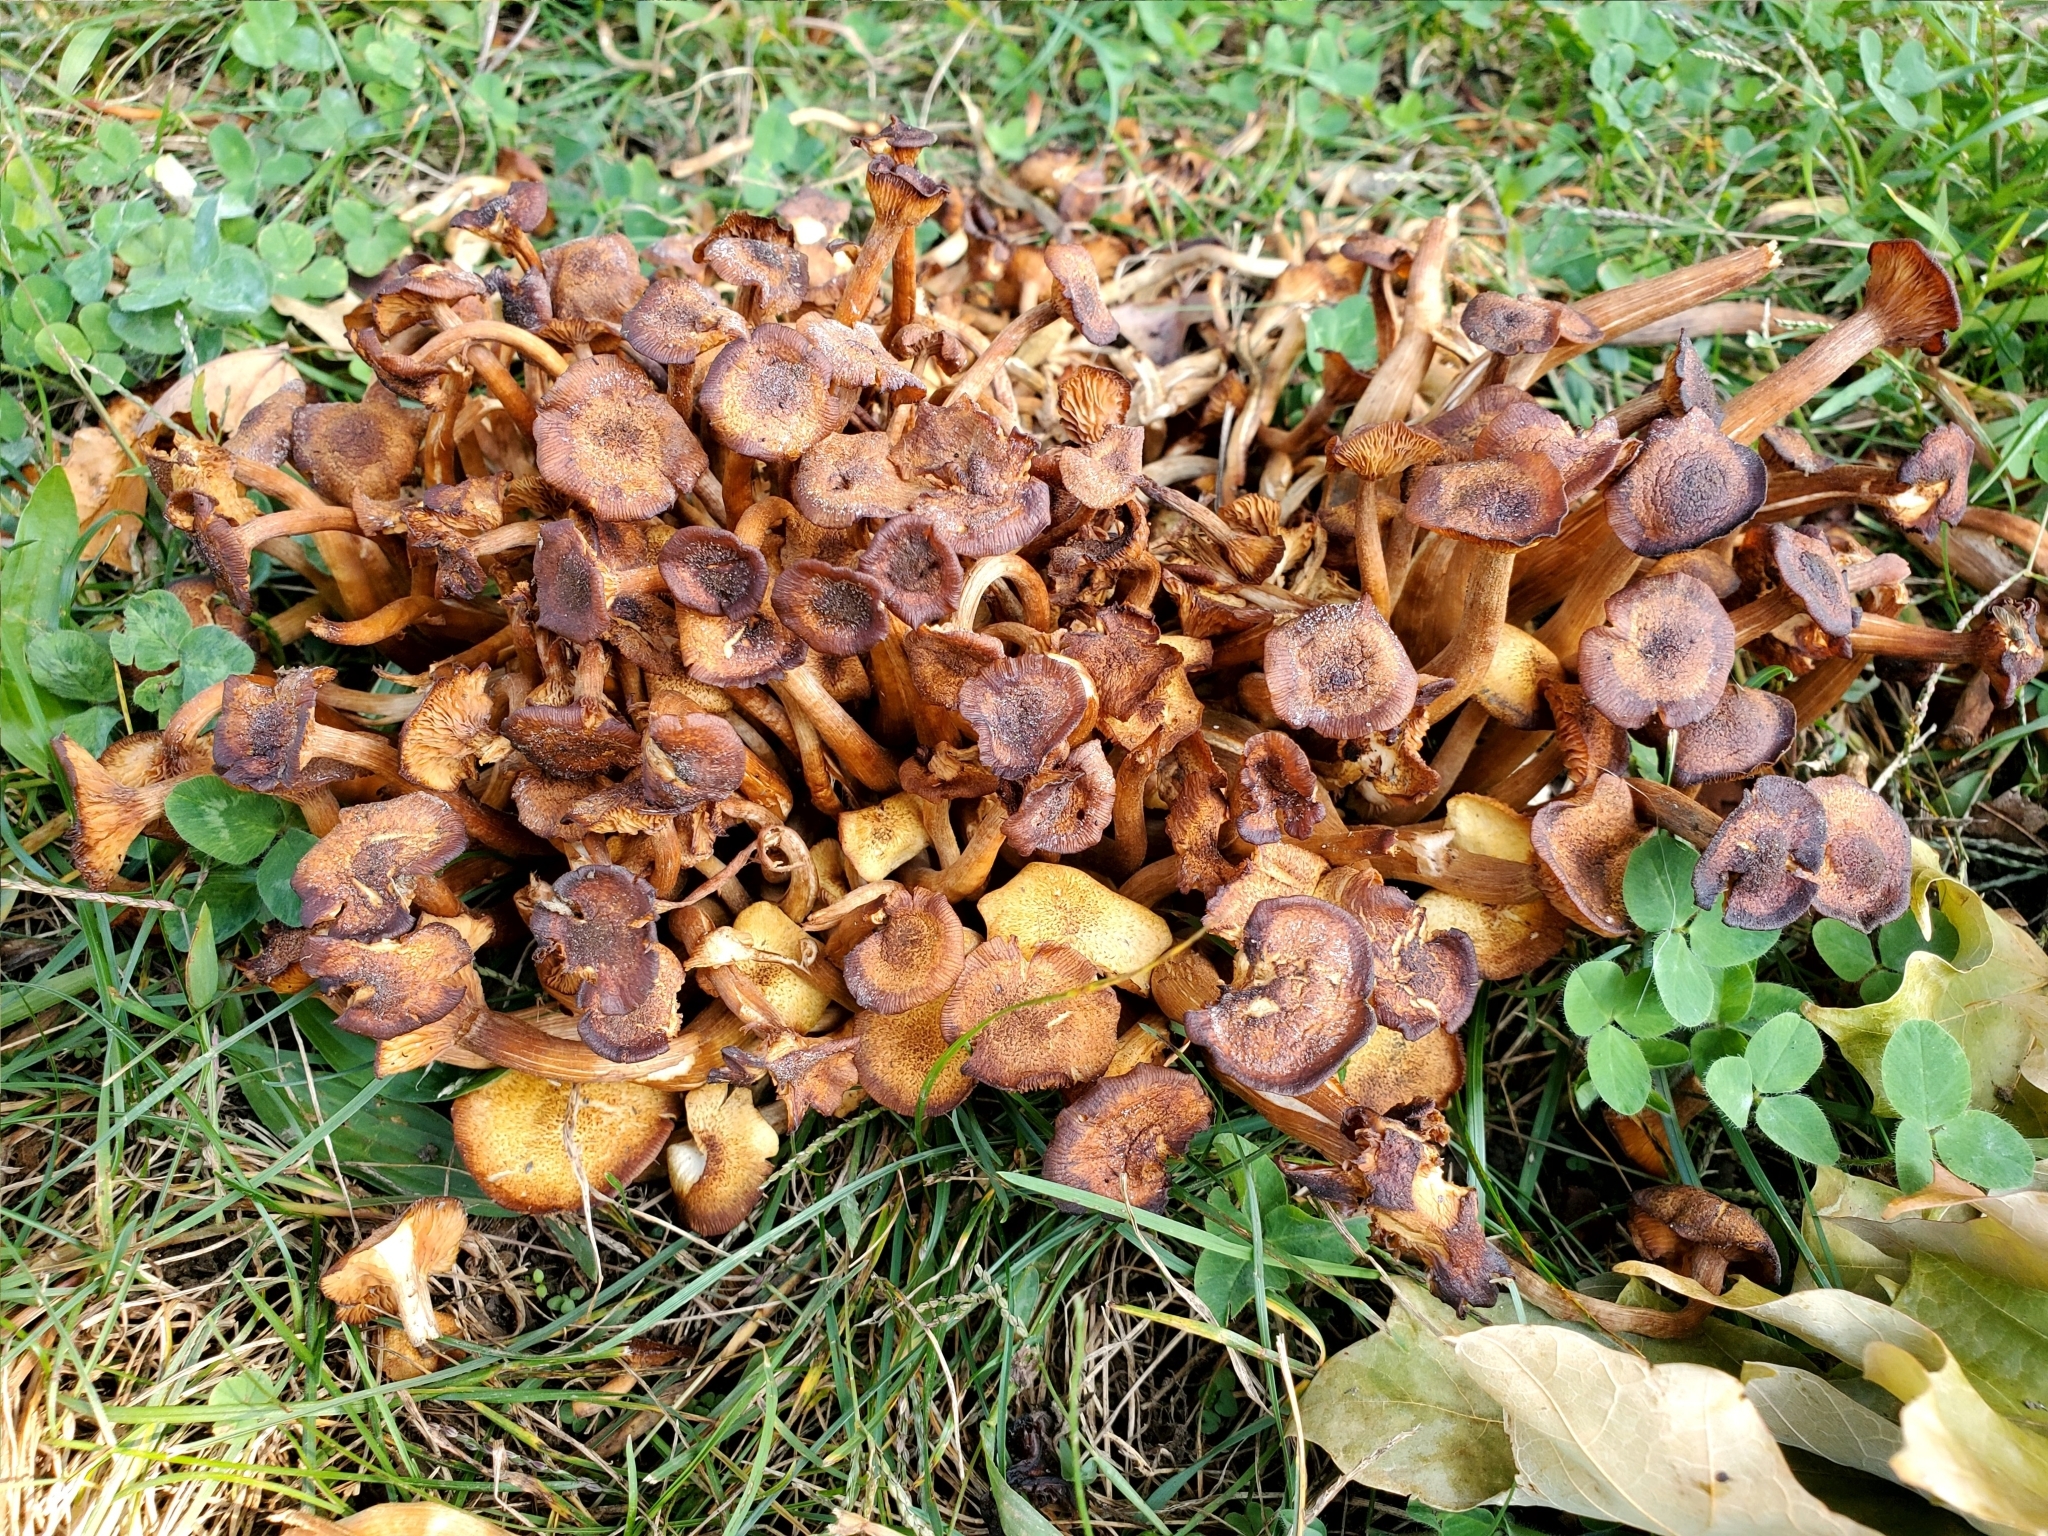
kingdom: Fungi
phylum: Basidiomycota
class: Agaricomycetes
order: Agaricales
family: Physalacriaceae
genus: Desarmillaria
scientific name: Desarmillaria caespitosa
